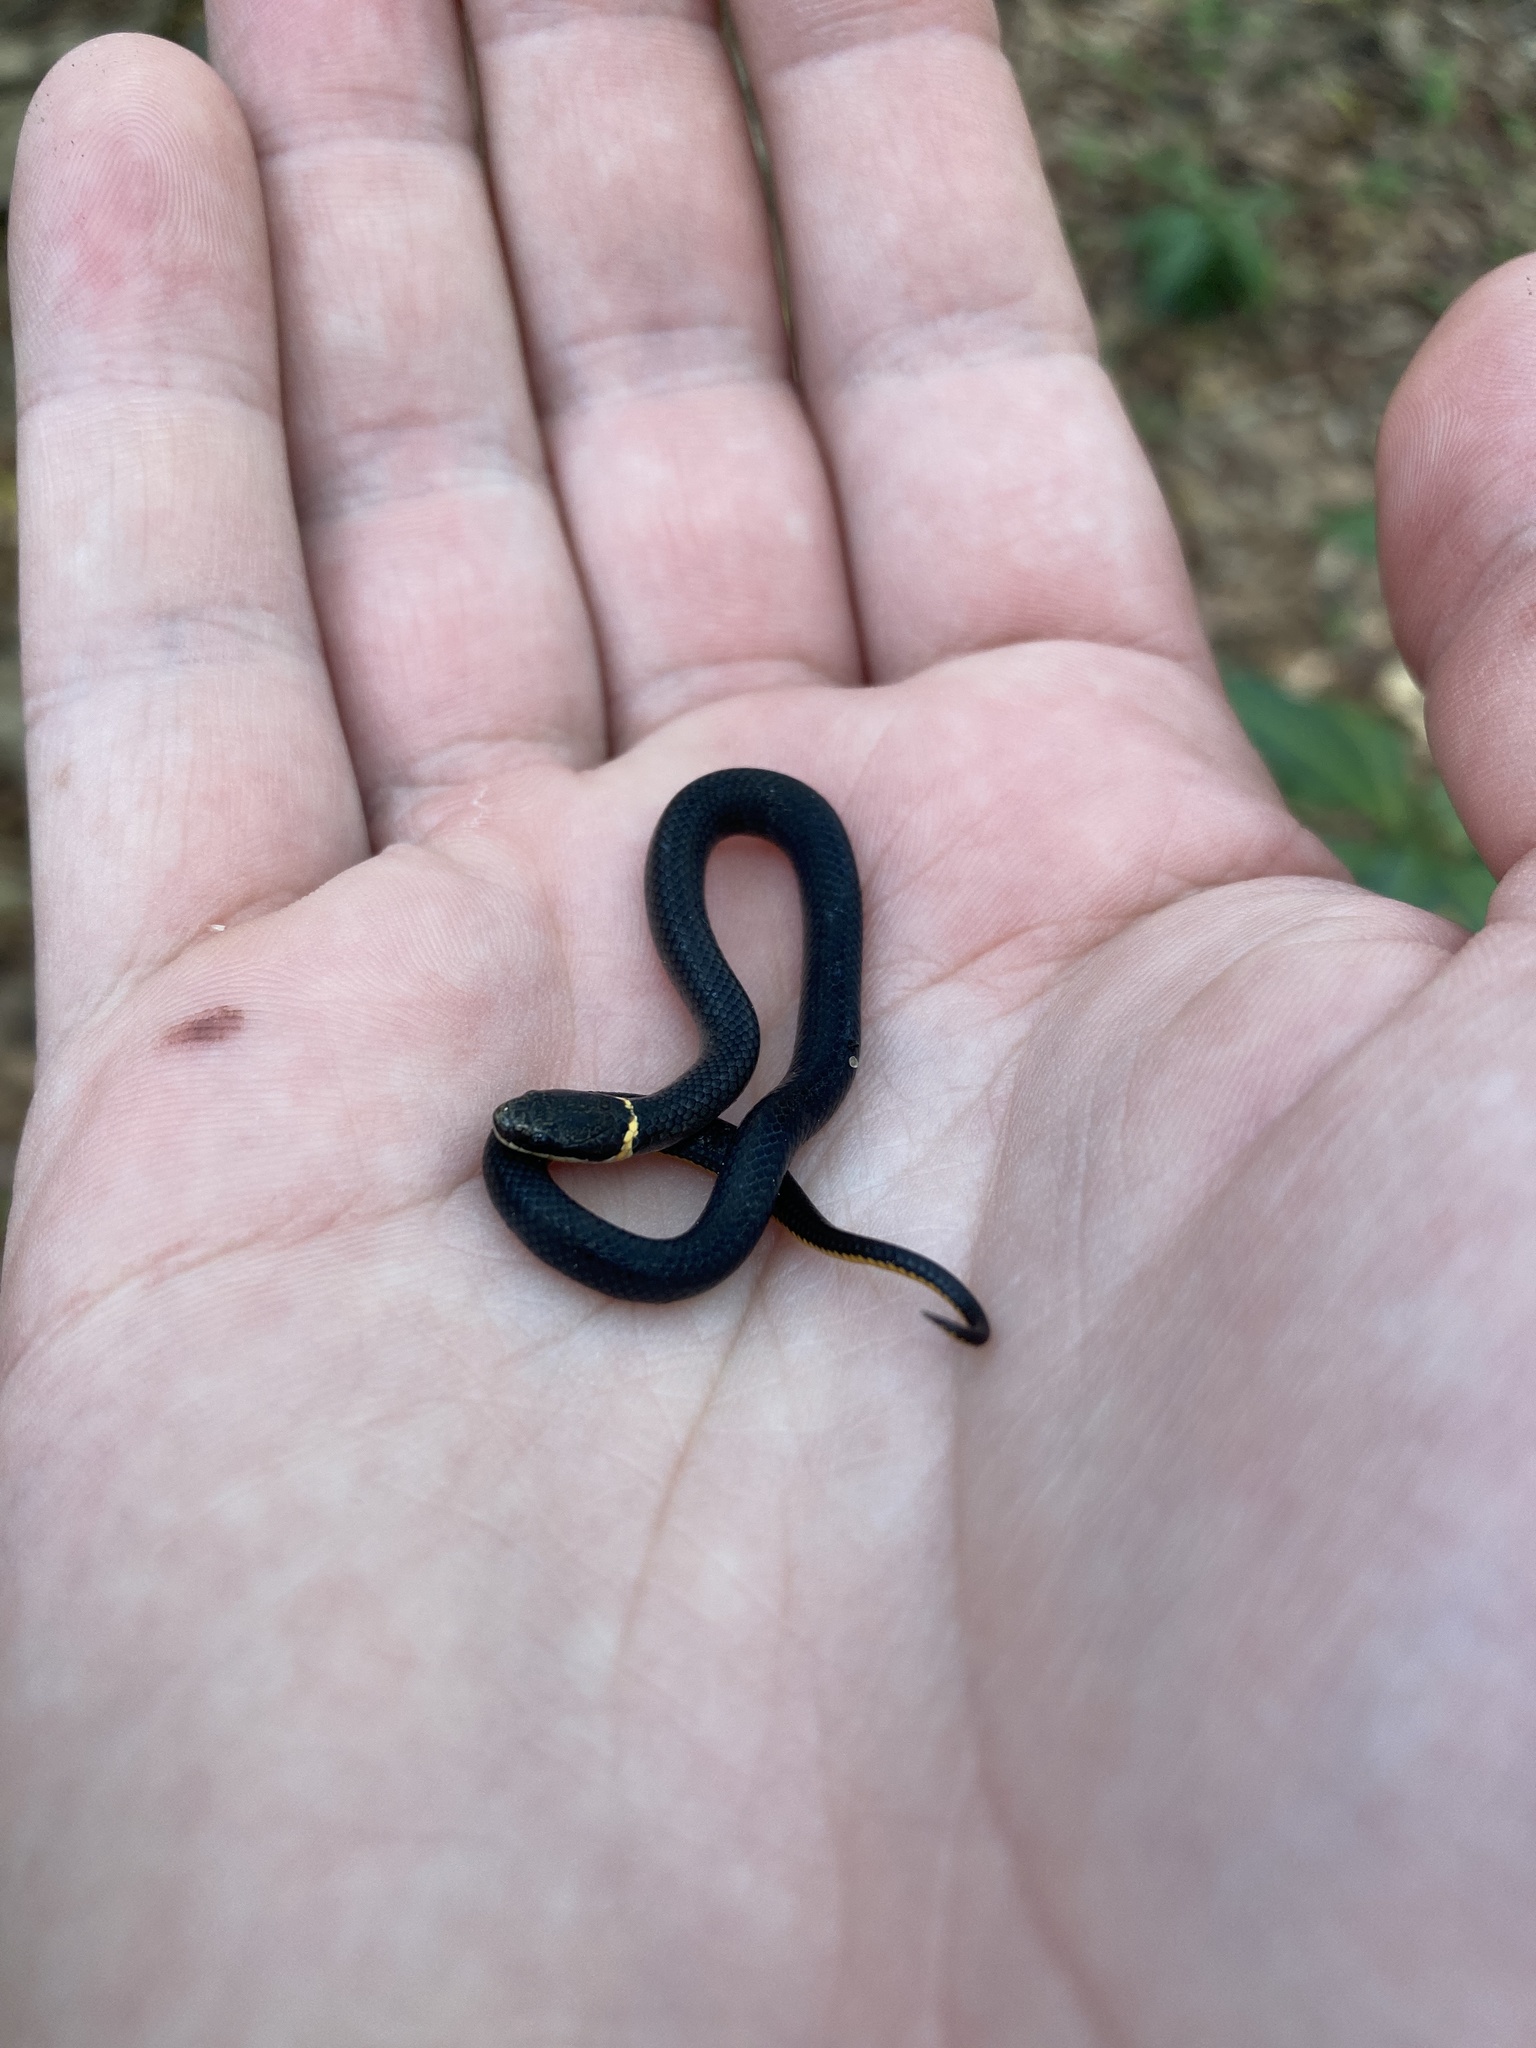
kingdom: Animalia
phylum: Chordata
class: Squamata
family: Colubridae
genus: Diadophis
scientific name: Diadophis punctatus
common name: Ringneck snake
